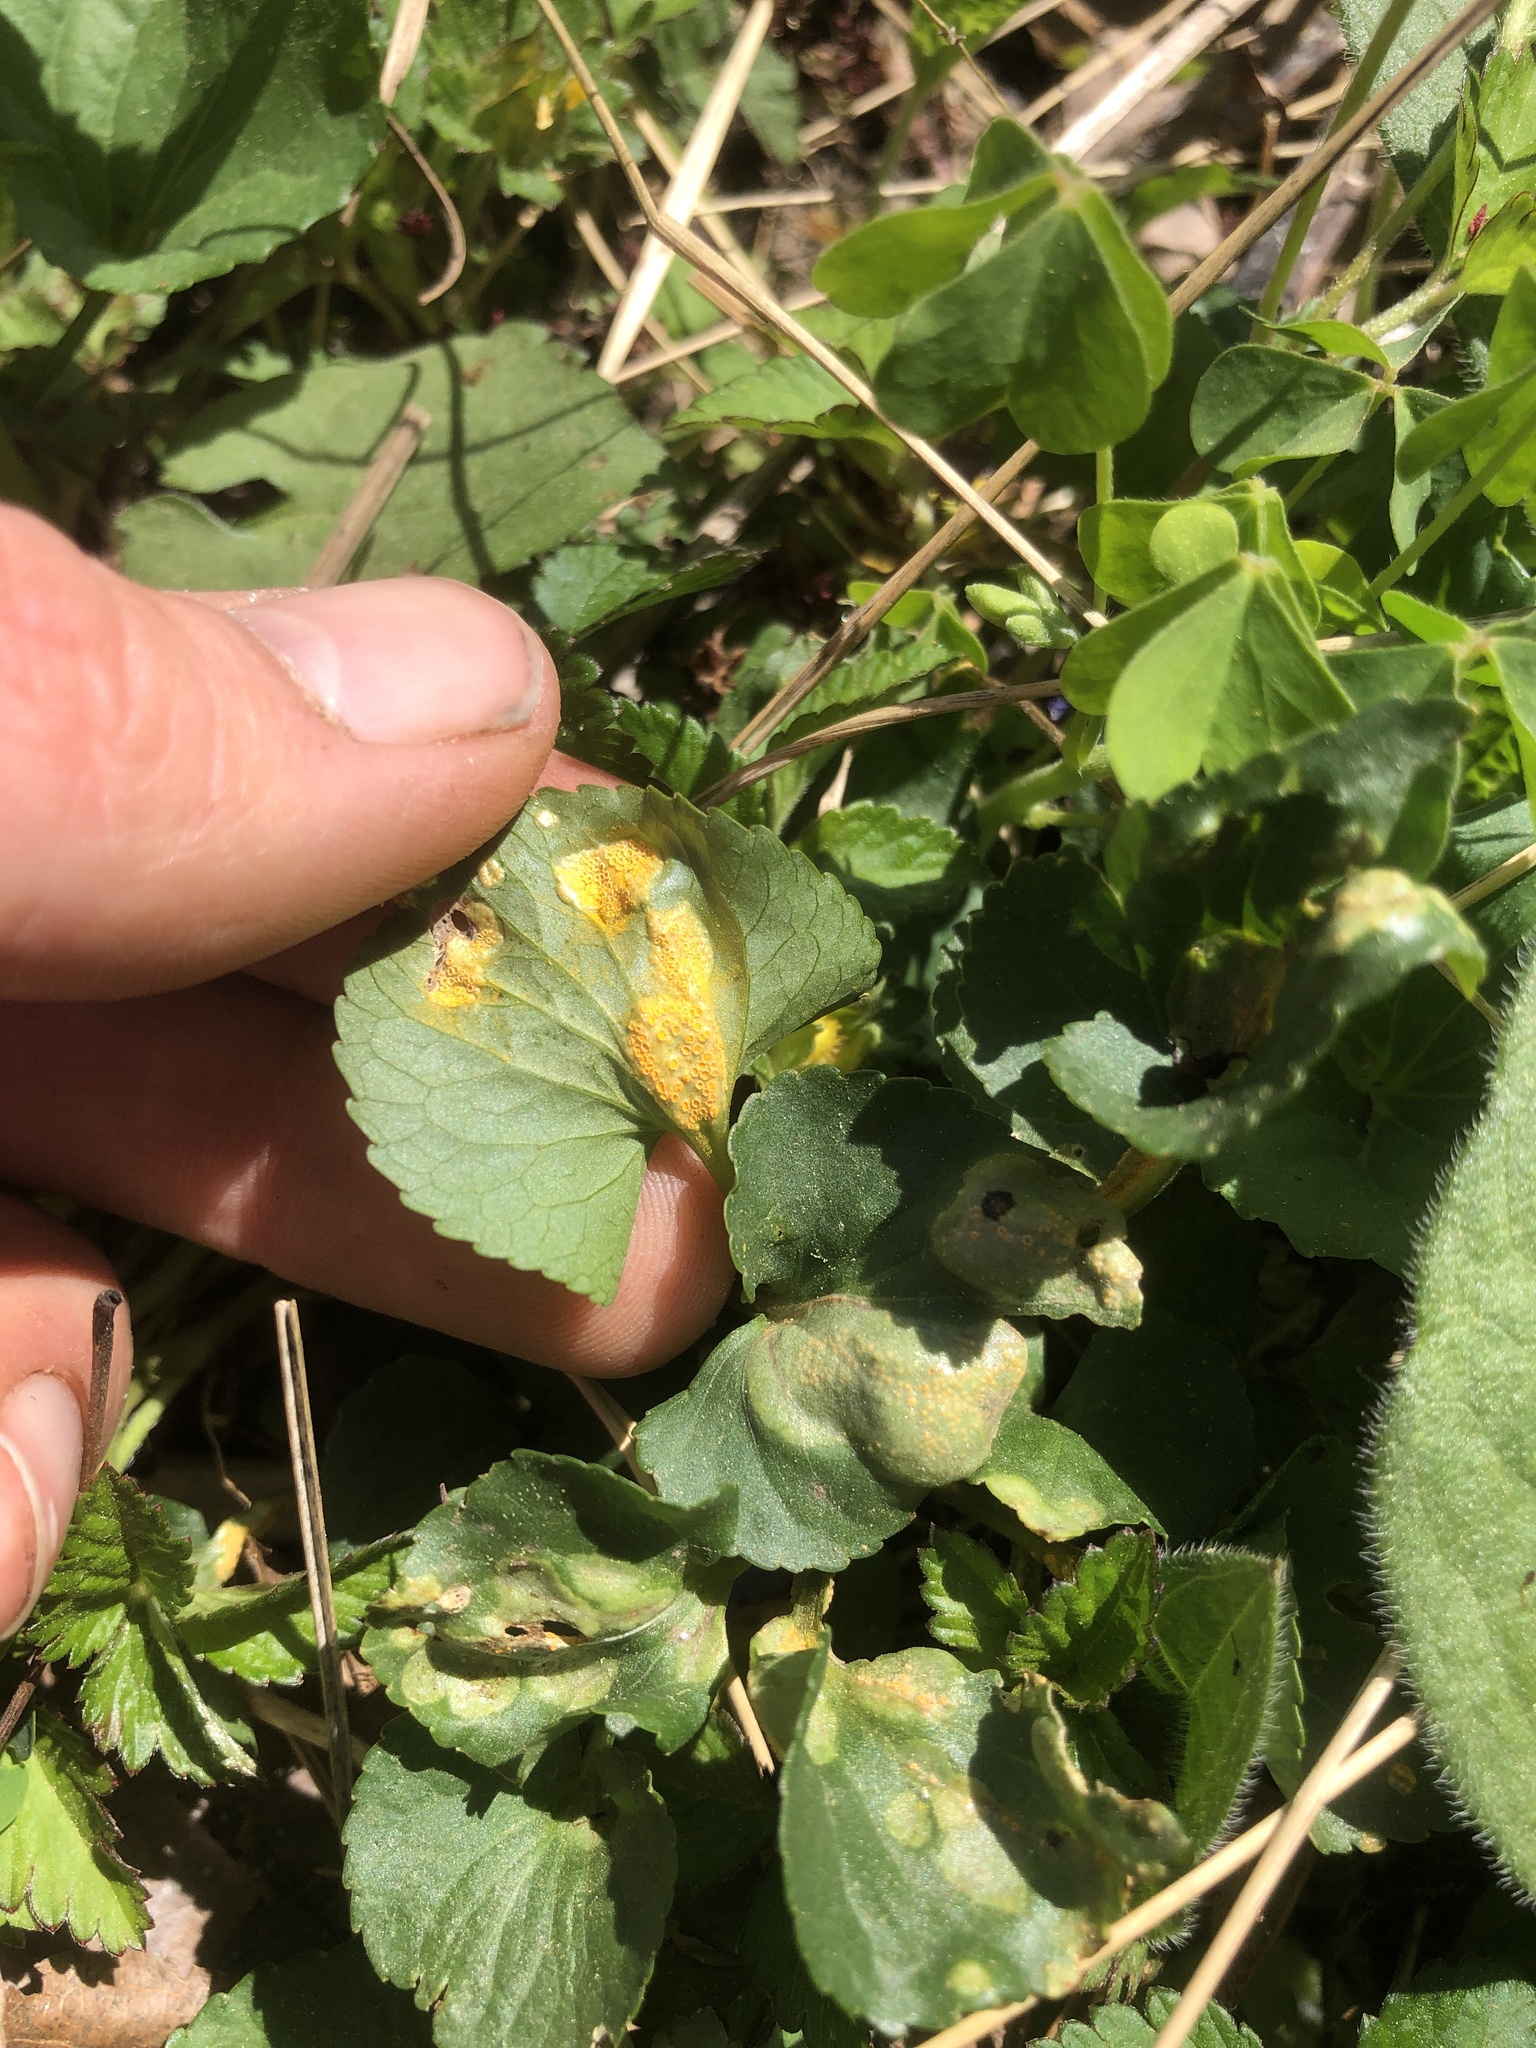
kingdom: Fungi
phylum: Basidiomycota
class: Pucciniomycetes
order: Pucciniales
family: Pucciniaceae
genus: Puccinia
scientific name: Puccinia violae
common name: Violet rust
